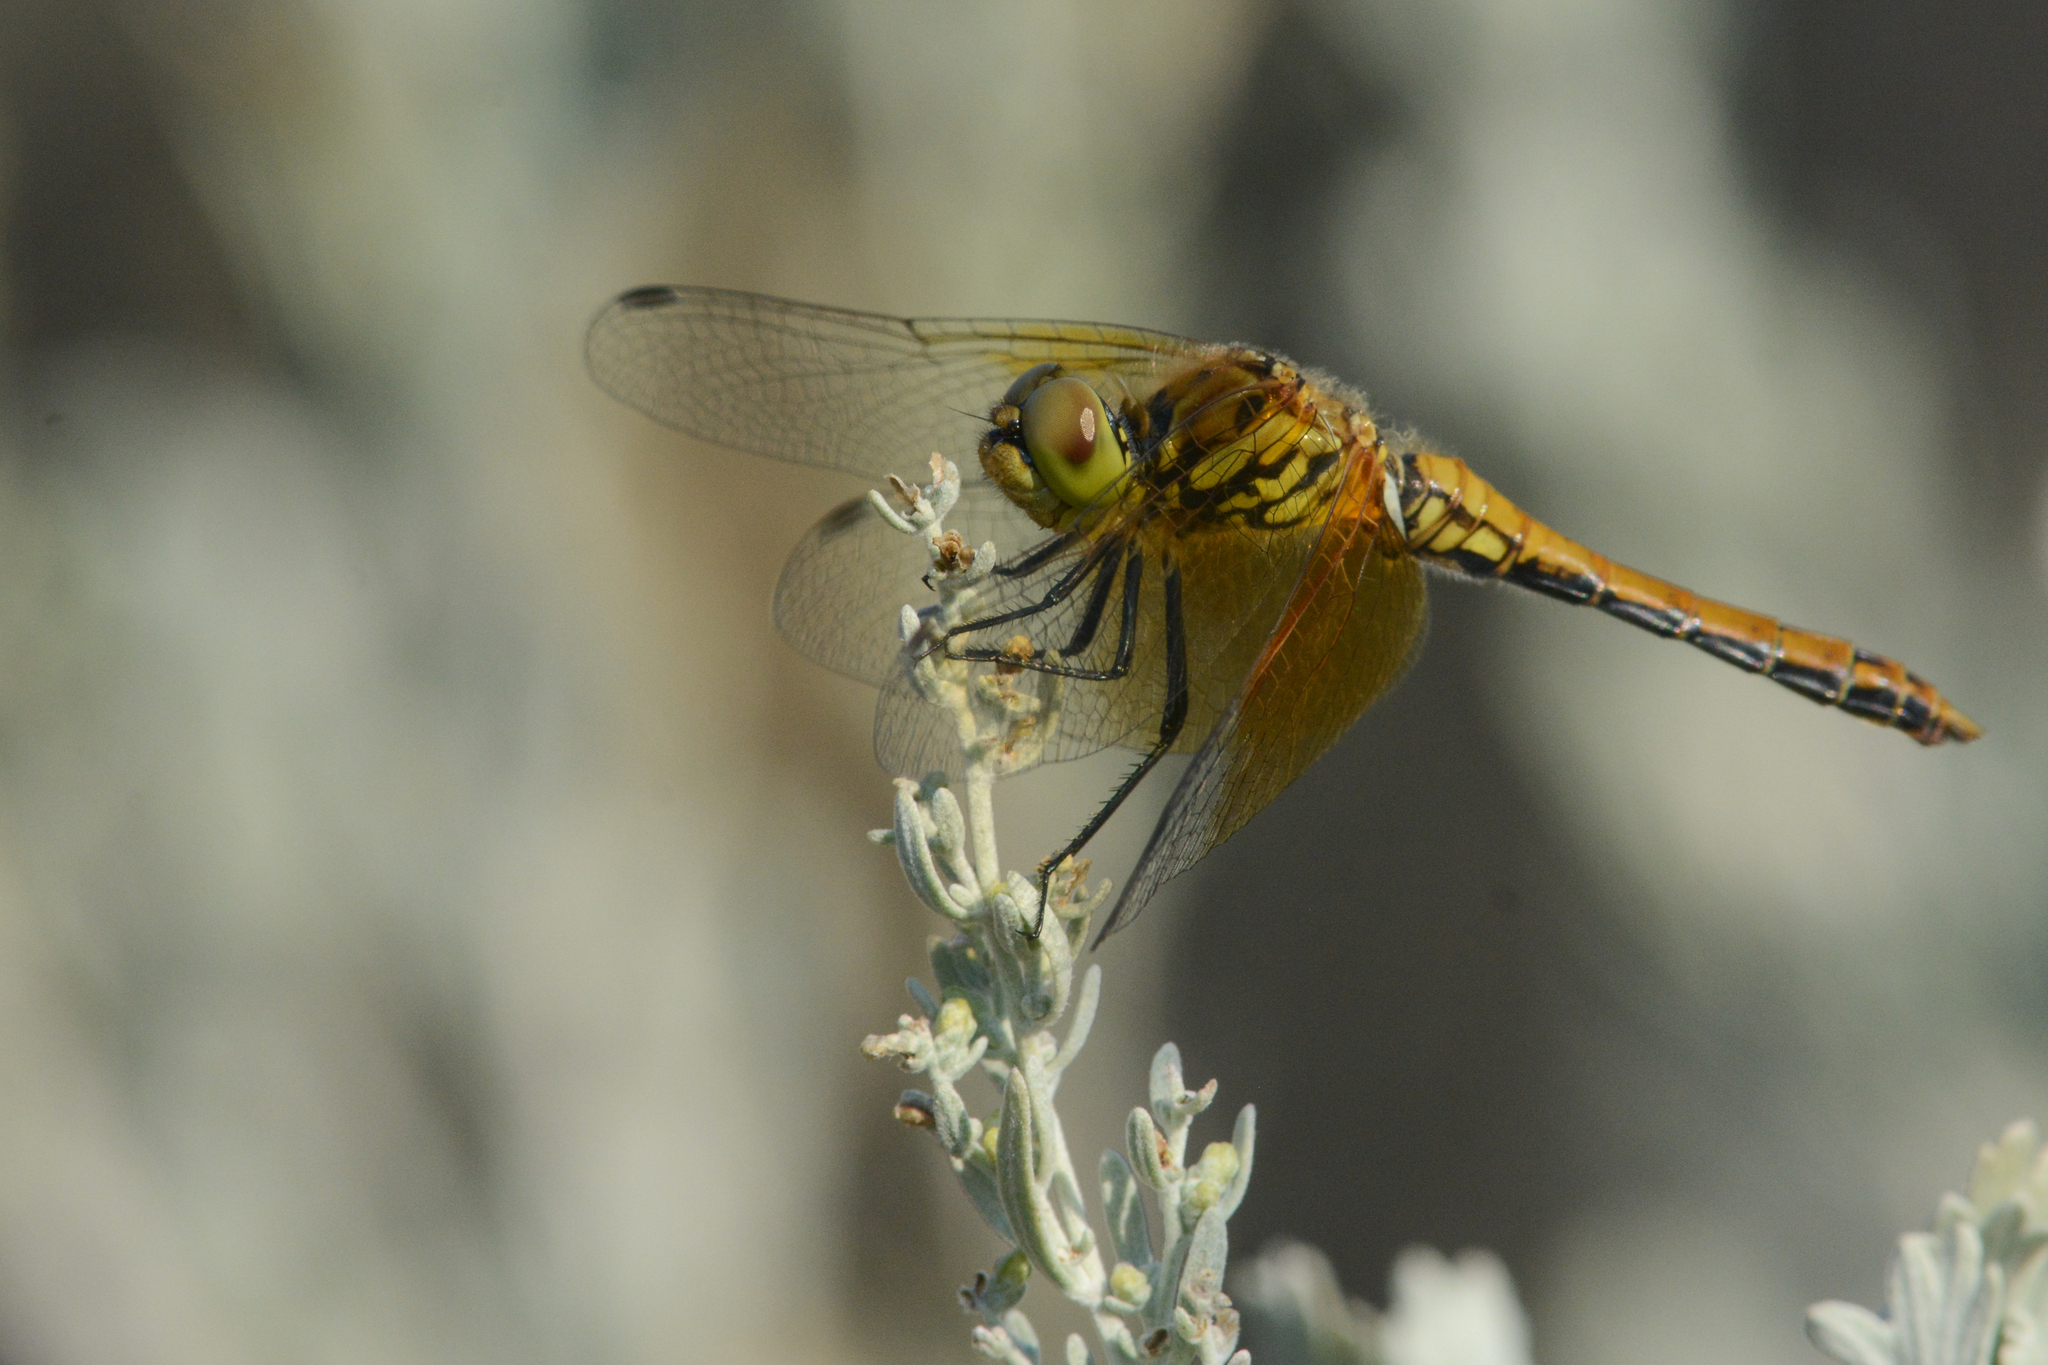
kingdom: Animalia
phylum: Arthropoda
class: Insecta
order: Odonata
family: Libellulidae
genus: Sympetrum
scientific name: Sympetrum semicinctum
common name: Band-winged meadowhawk
